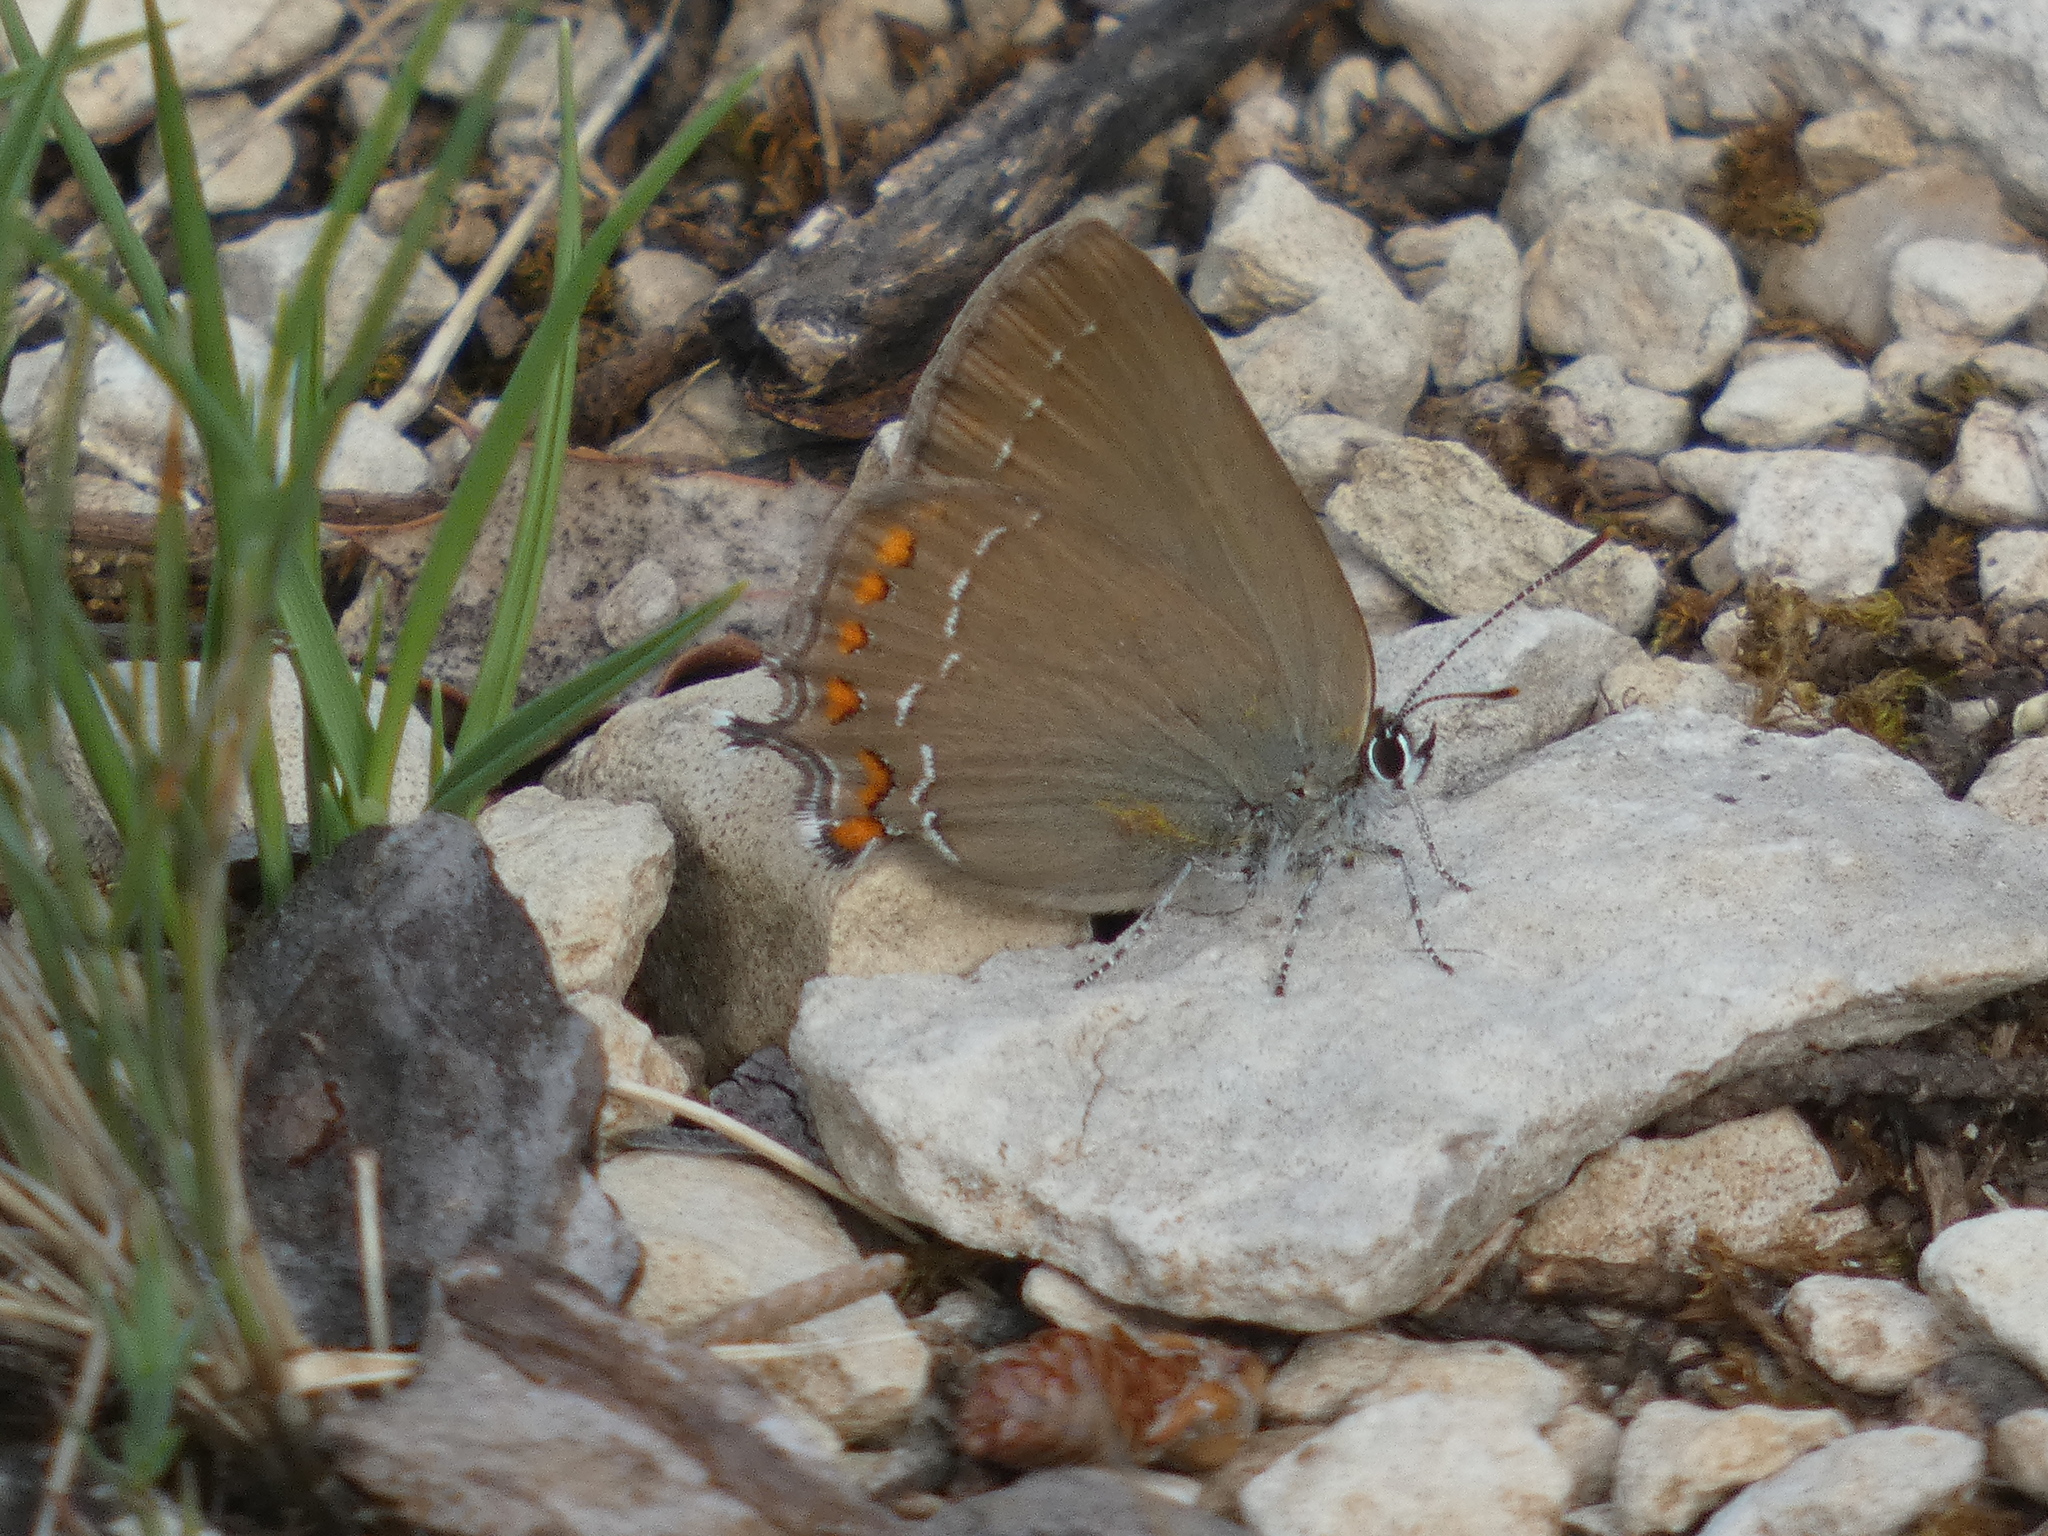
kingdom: Animalia
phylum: Arthropoda
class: Insecta
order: Lepidoptera
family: Lycaenidae
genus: Fixsenia
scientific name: Fixsenia esculi
